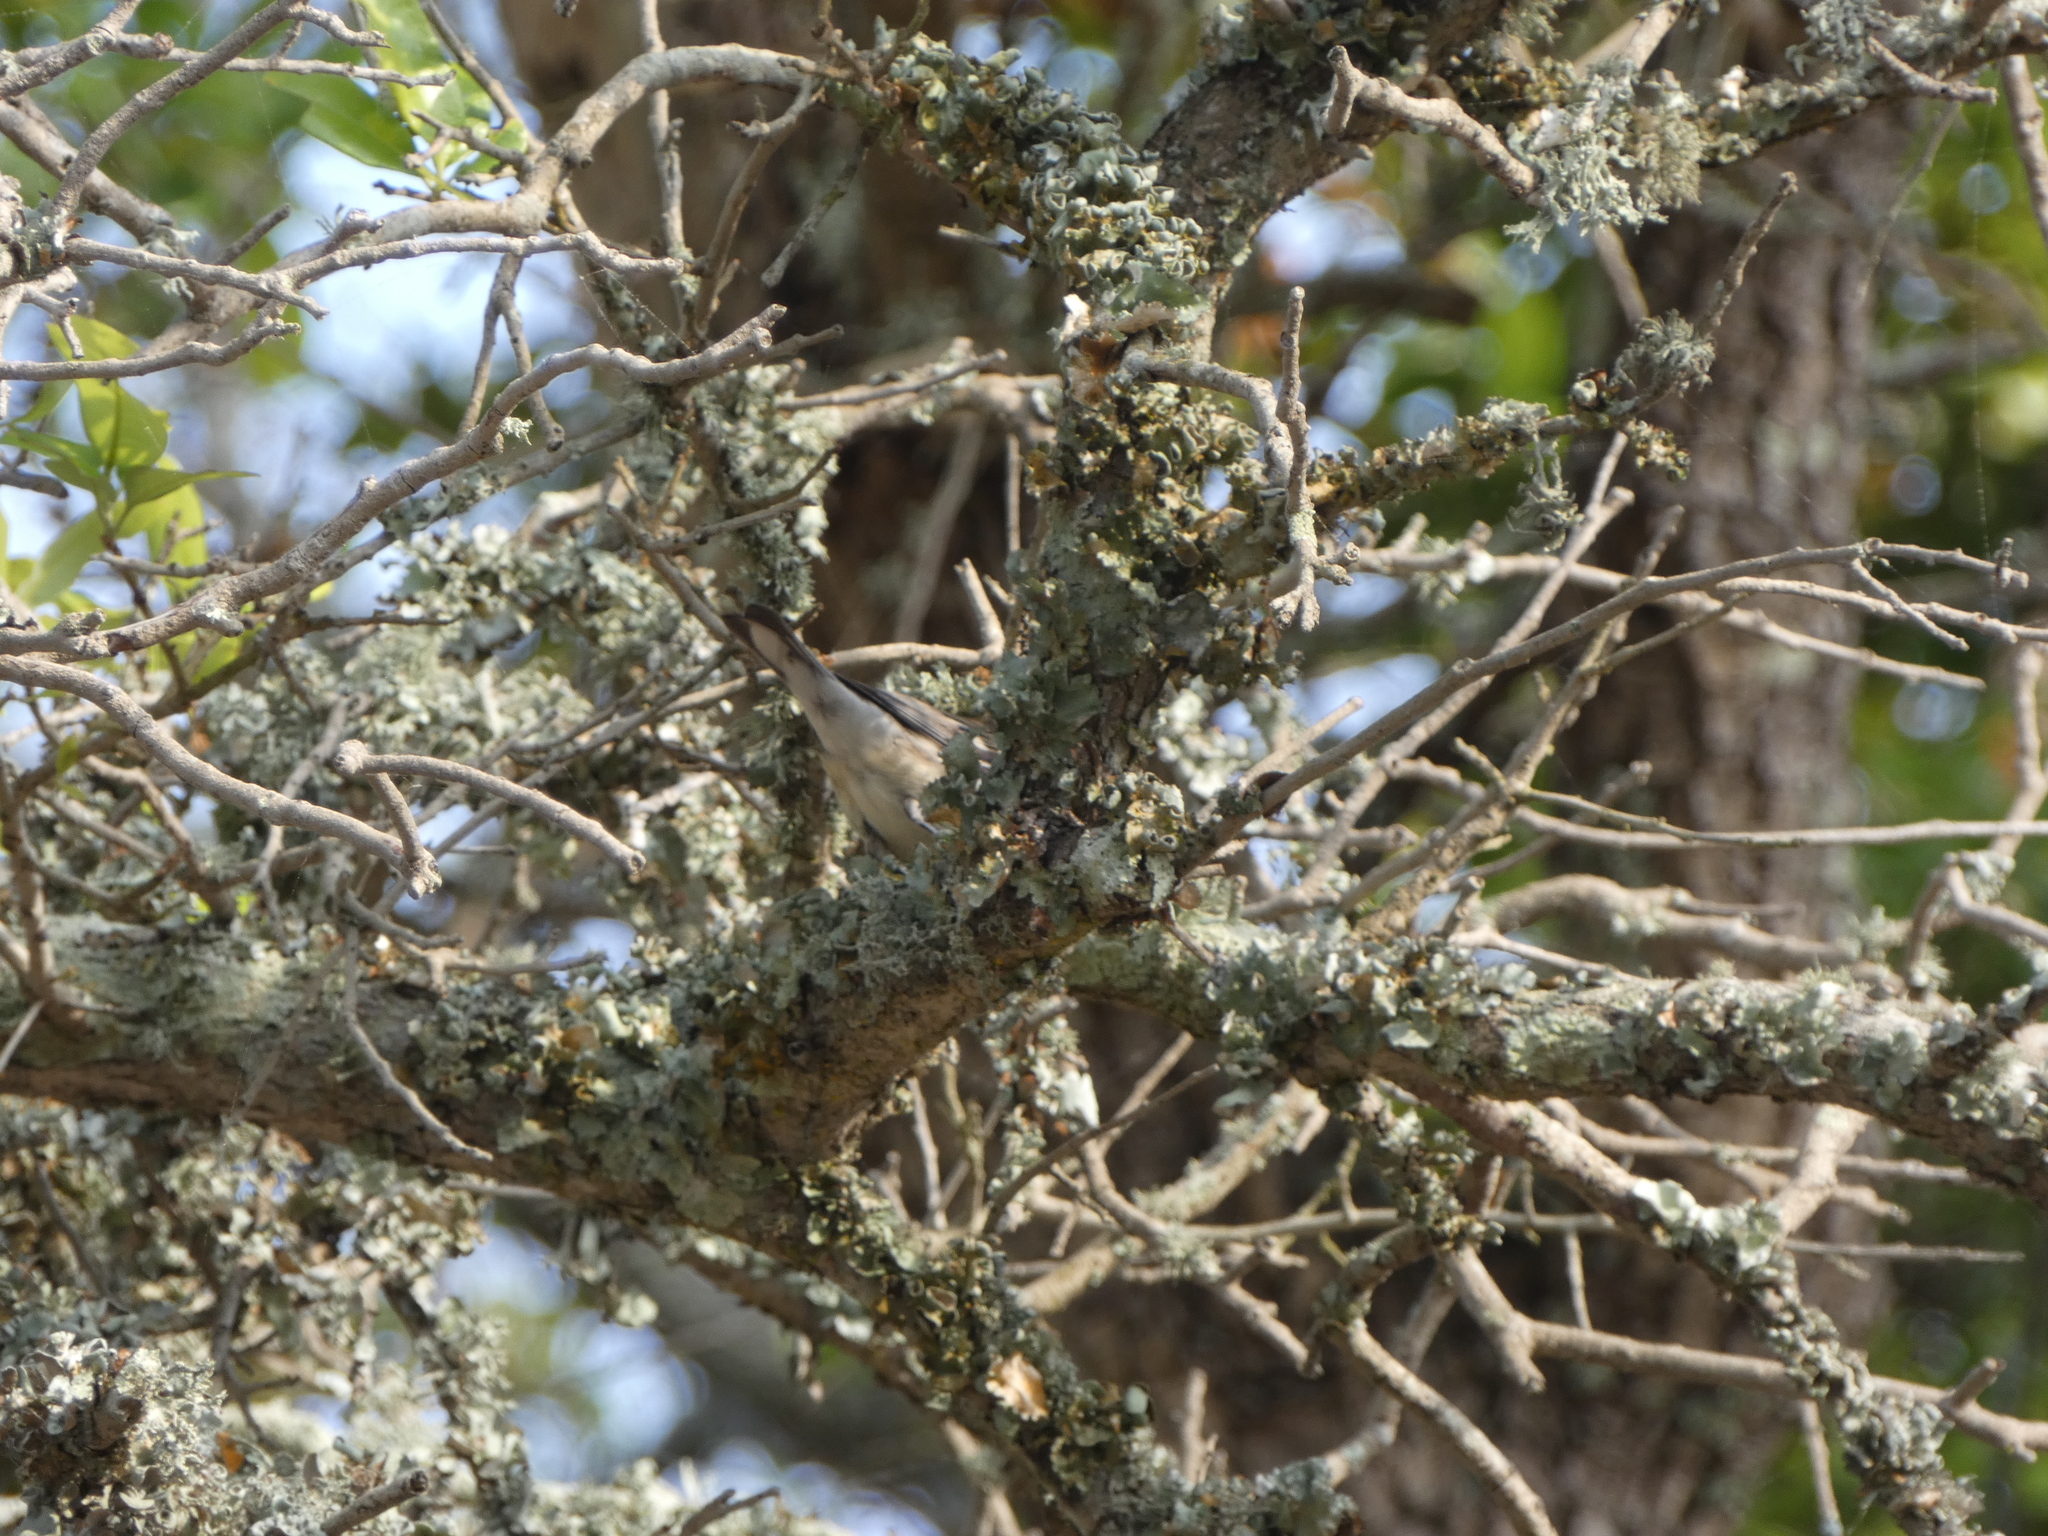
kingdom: Animalia
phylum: Chordata
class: Aves
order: Passeriformes
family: Parulidae
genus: Setophaga
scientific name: Setophaga coronata
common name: Myrtle warbler
